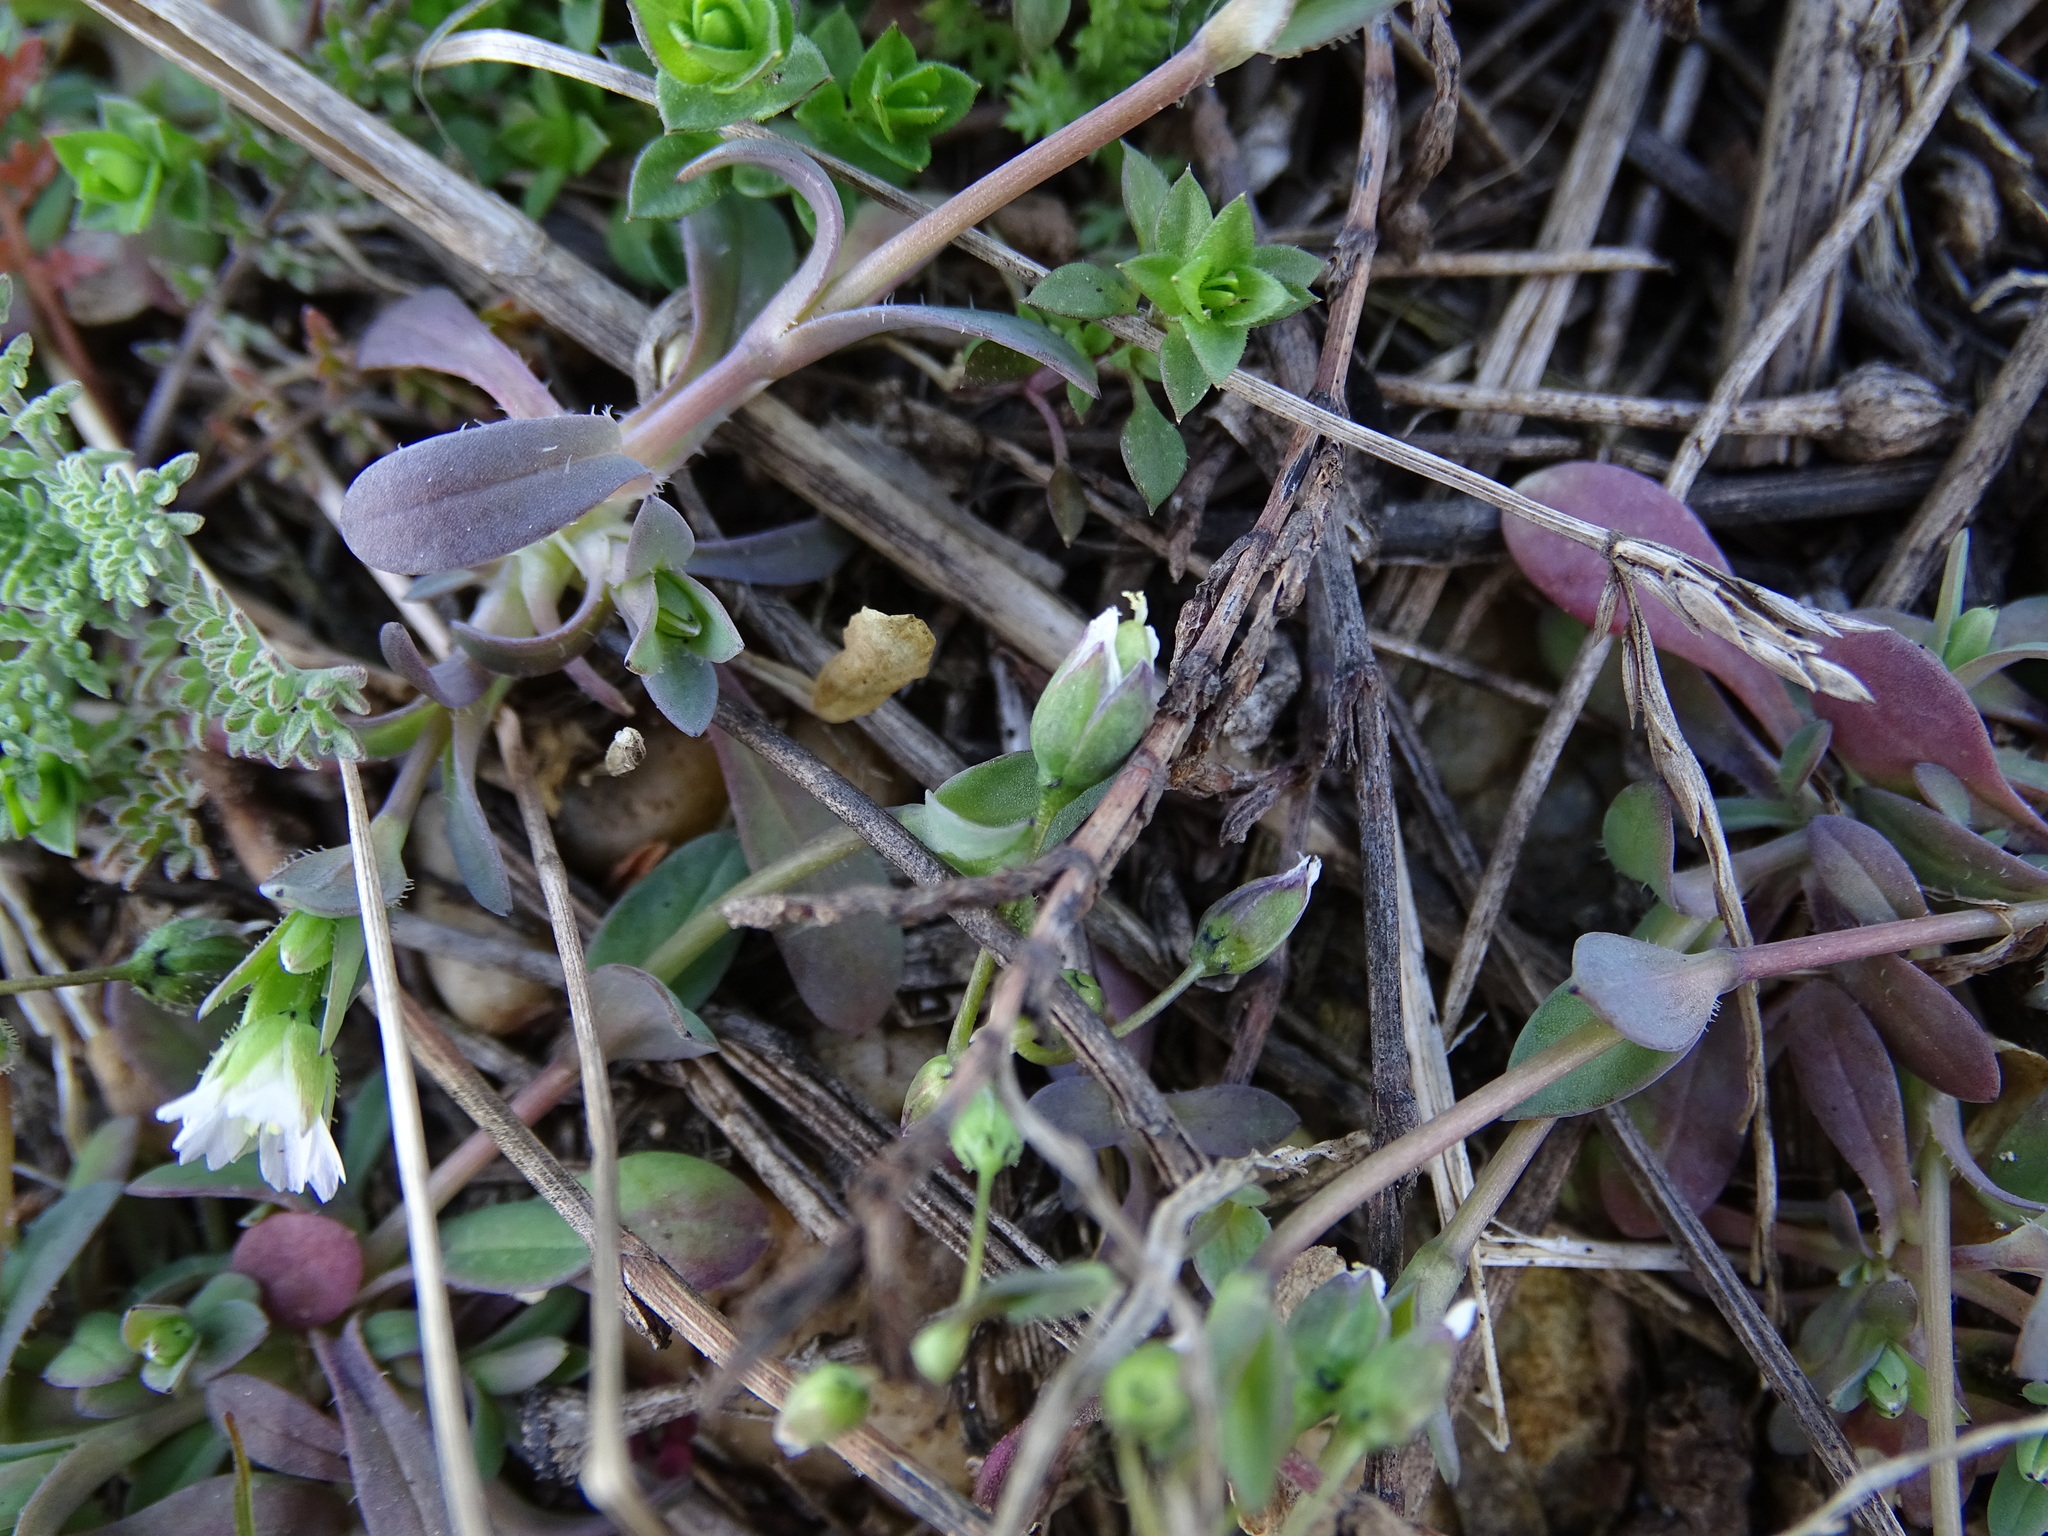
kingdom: Plantae
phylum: Tracheophyta
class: Magnoliopsida
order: Caryophyllales
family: Caryophyllaceae
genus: Holosteum
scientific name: Holosteum umbellatum
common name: Jagged chickweed
